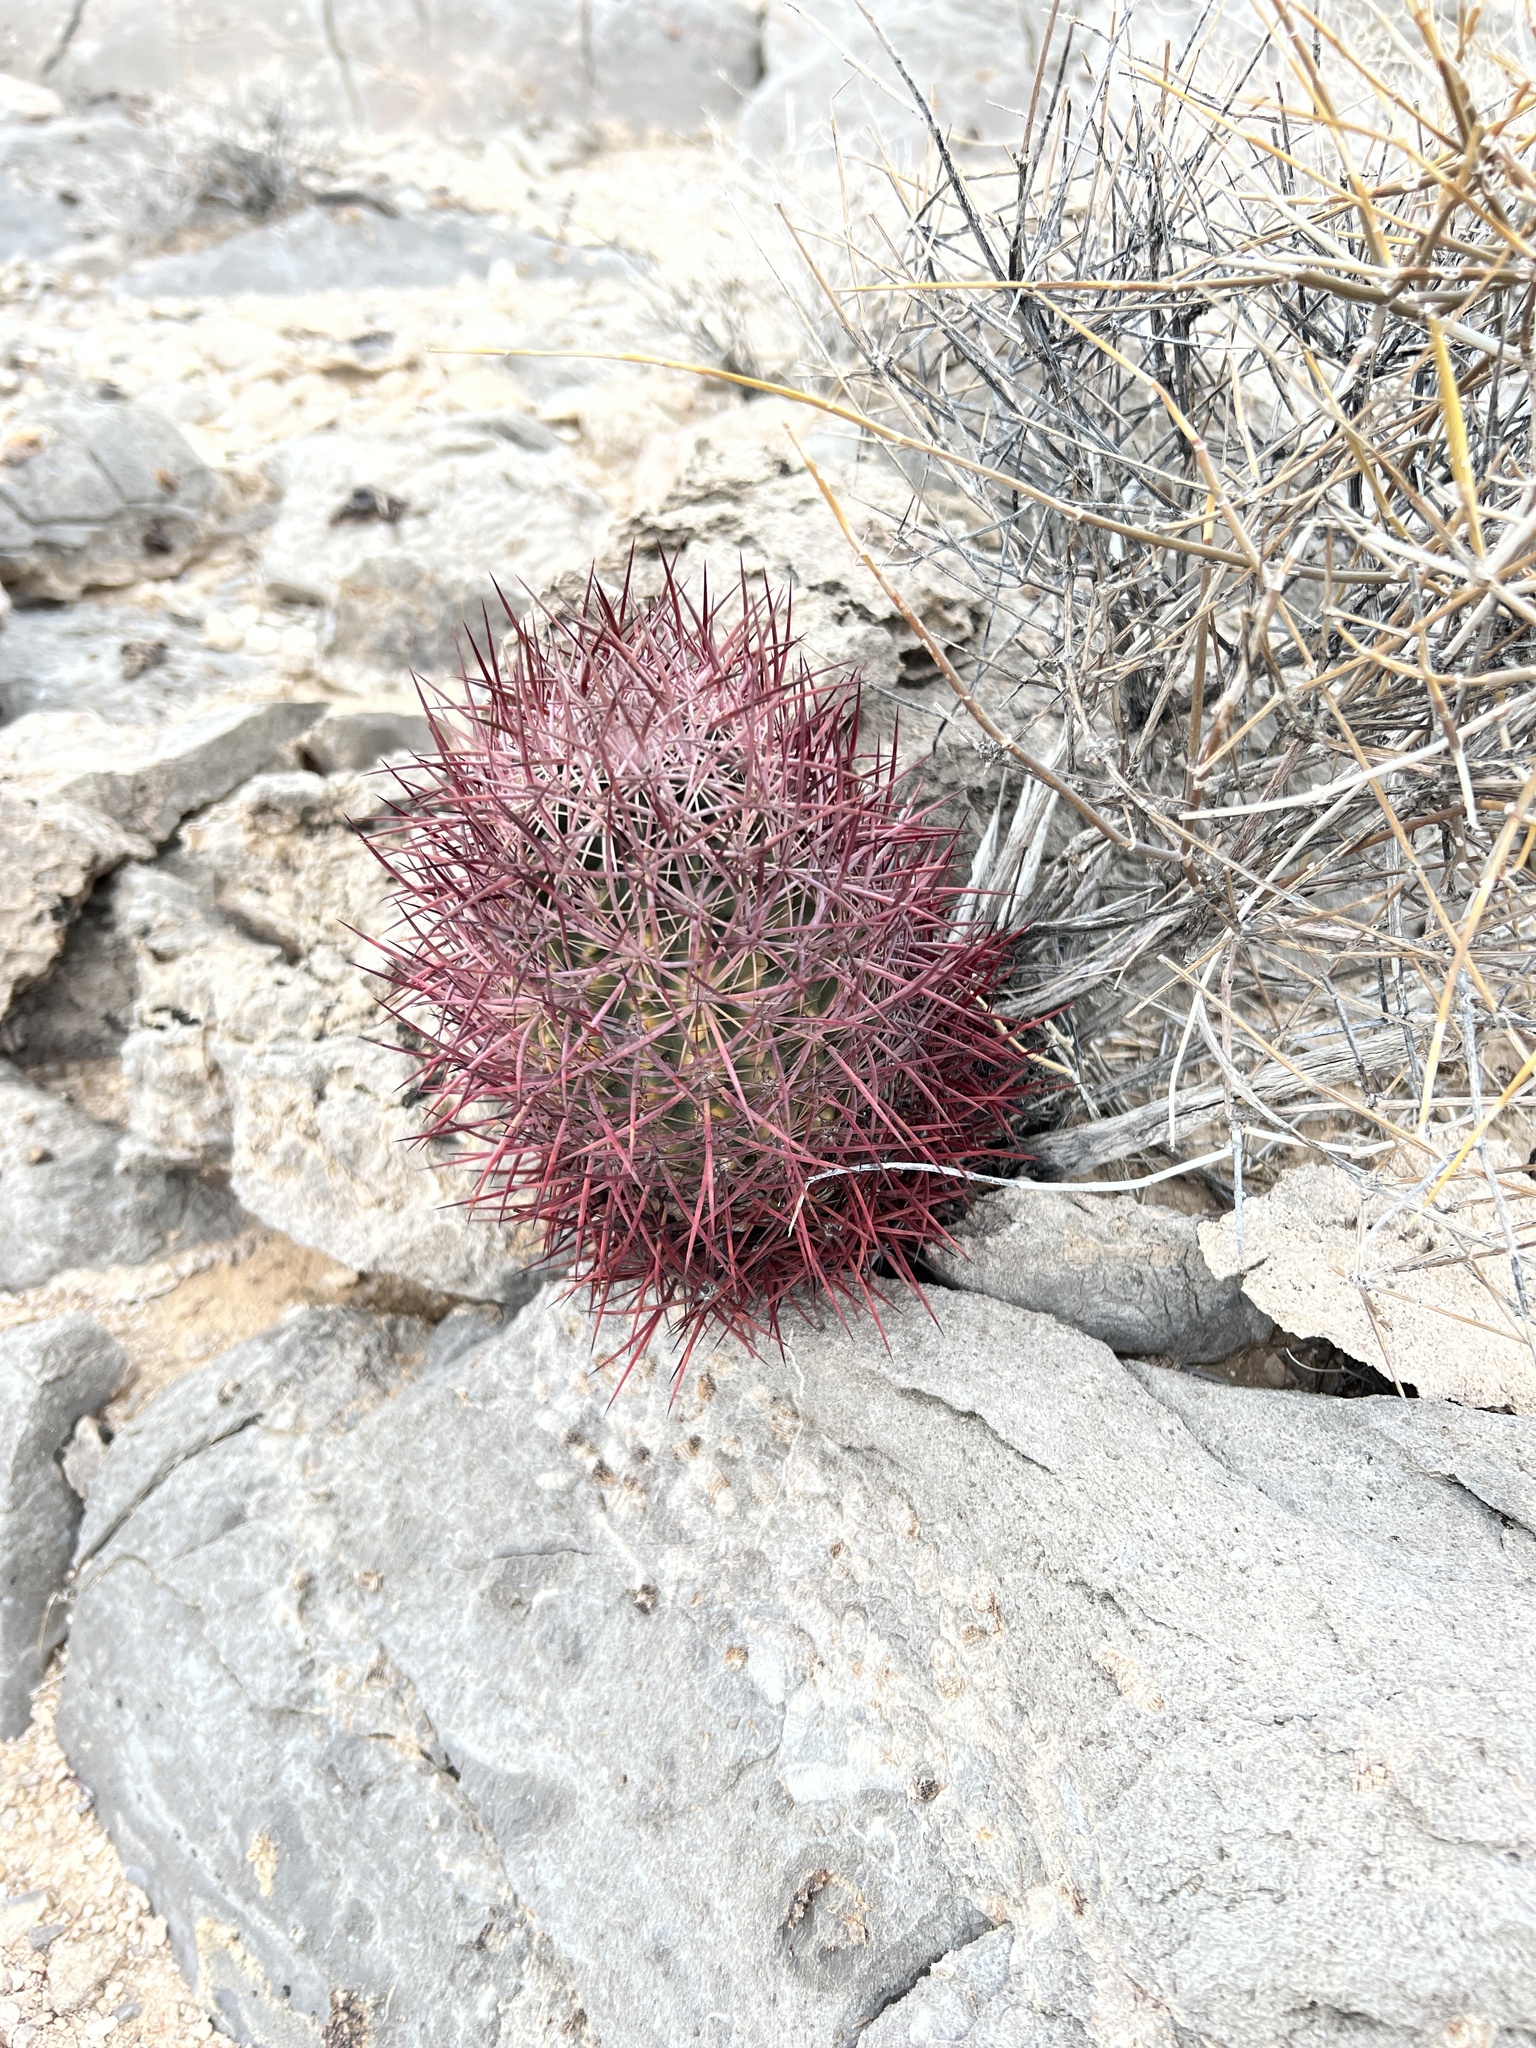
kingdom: Plantae
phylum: Tracheophyta
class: Magnoliopsida
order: Caryophyllales
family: Cactaceae
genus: Sclerocactus
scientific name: Sclerocactus johnsonii
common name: Eight-spine fishhook cactus
